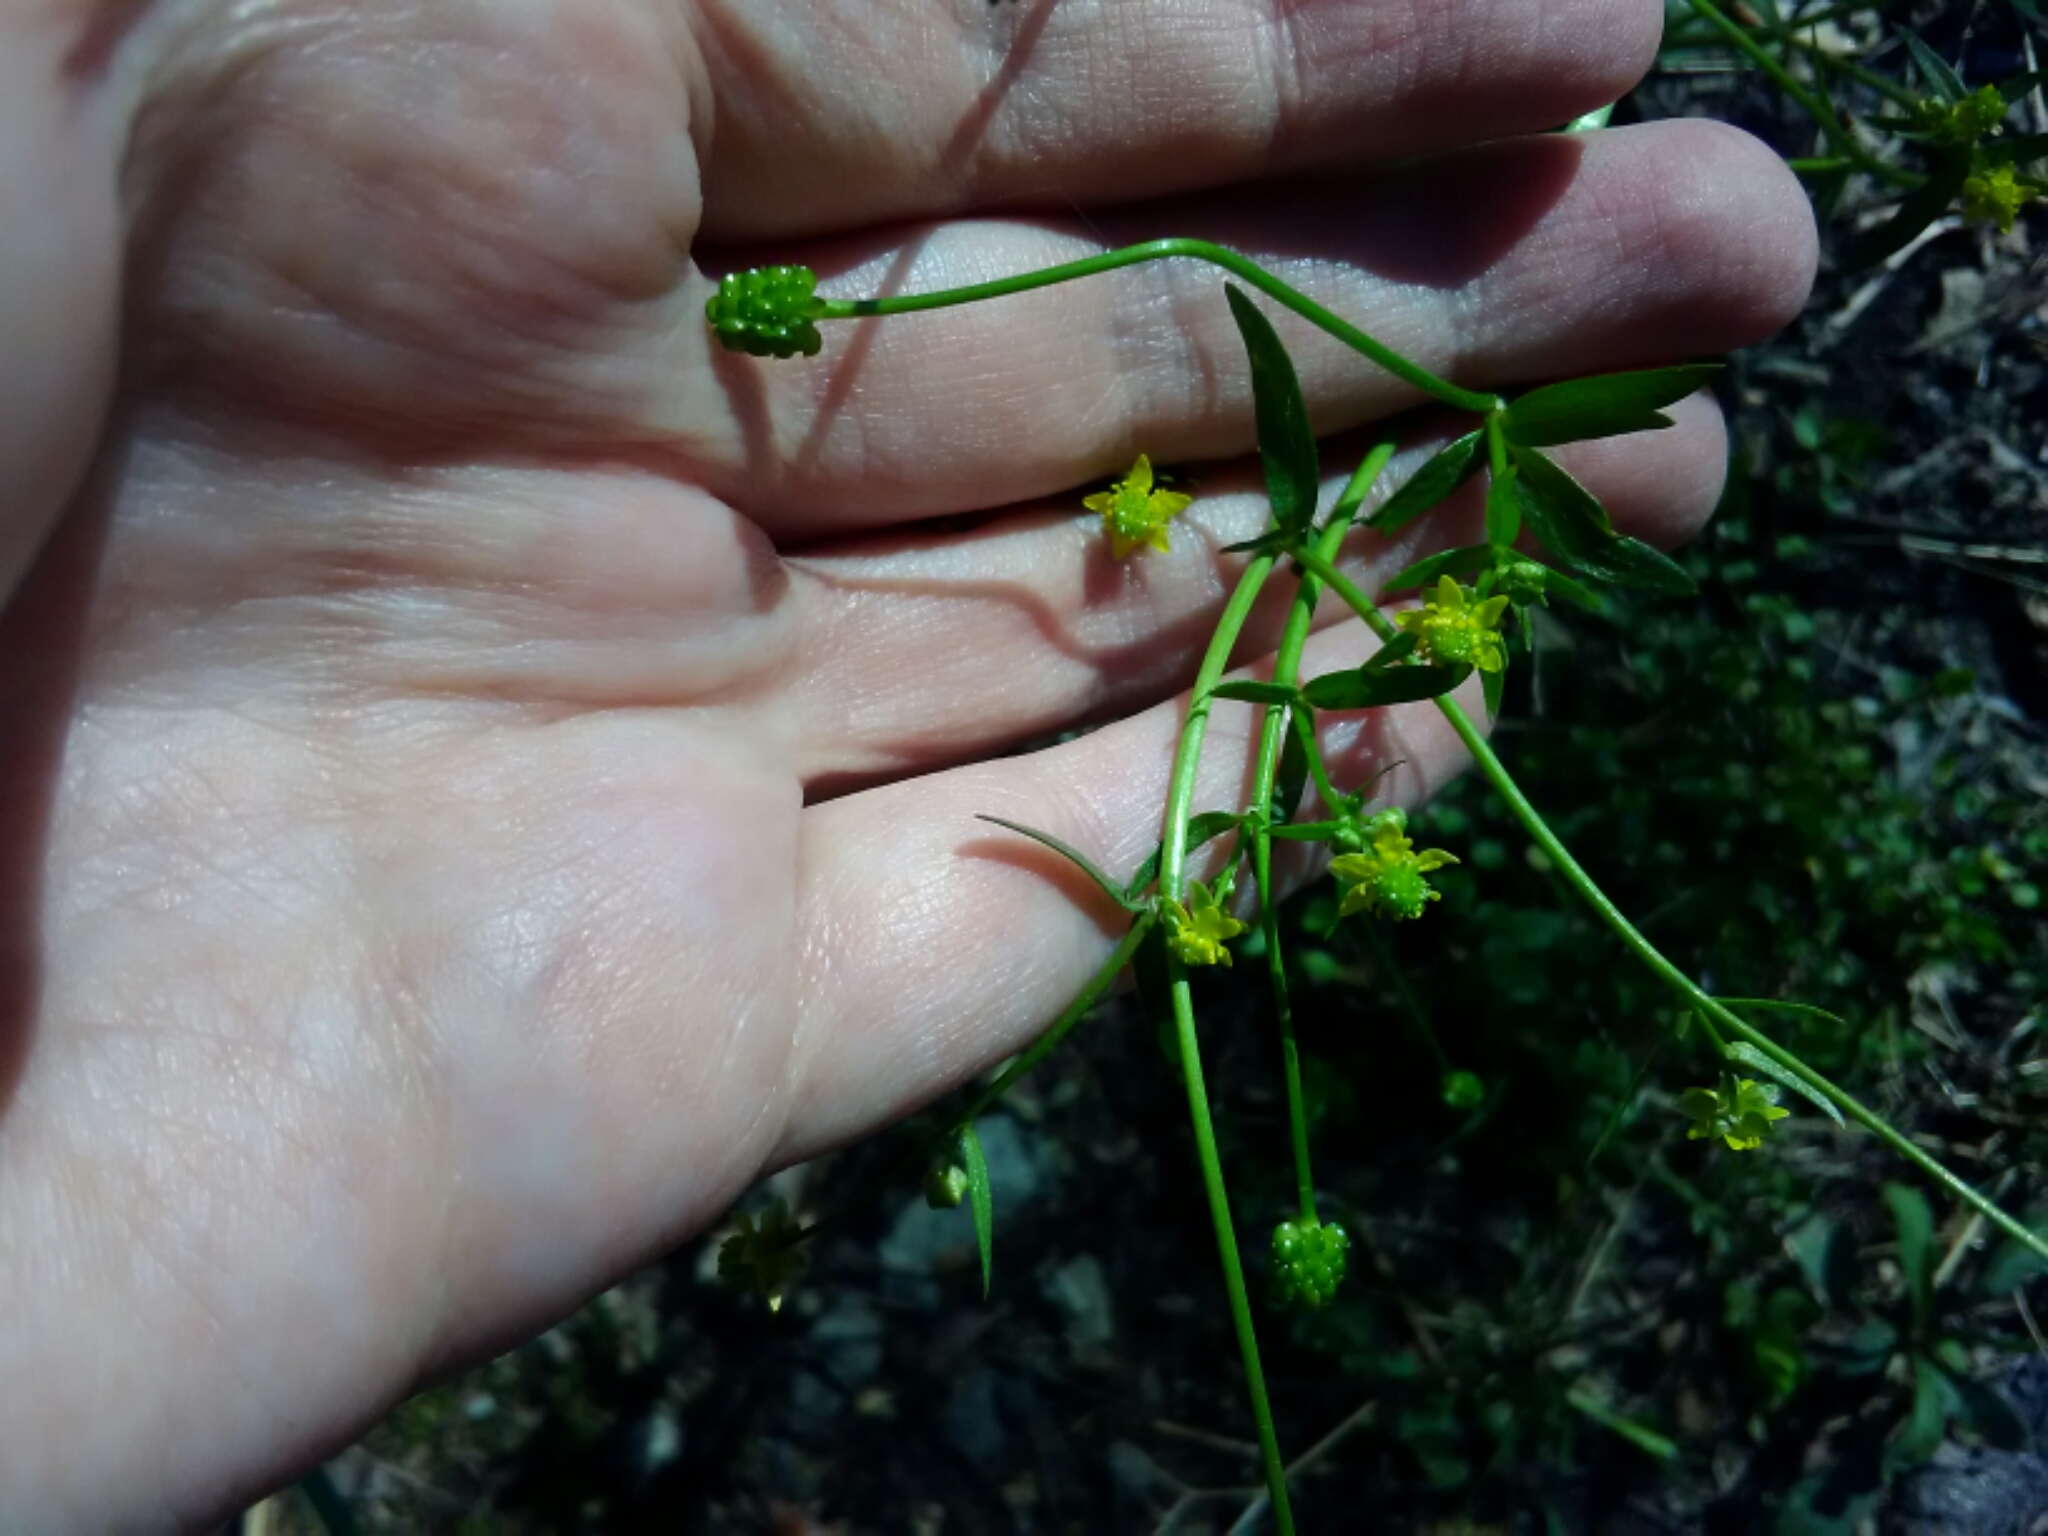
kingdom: Plantae
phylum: Tracheophyta
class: Magnoliopsida
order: Ranunculales
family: Ranunculaceae
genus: Ranunculus
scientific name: Ranunculus abortivus
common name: Early wood buttercup
